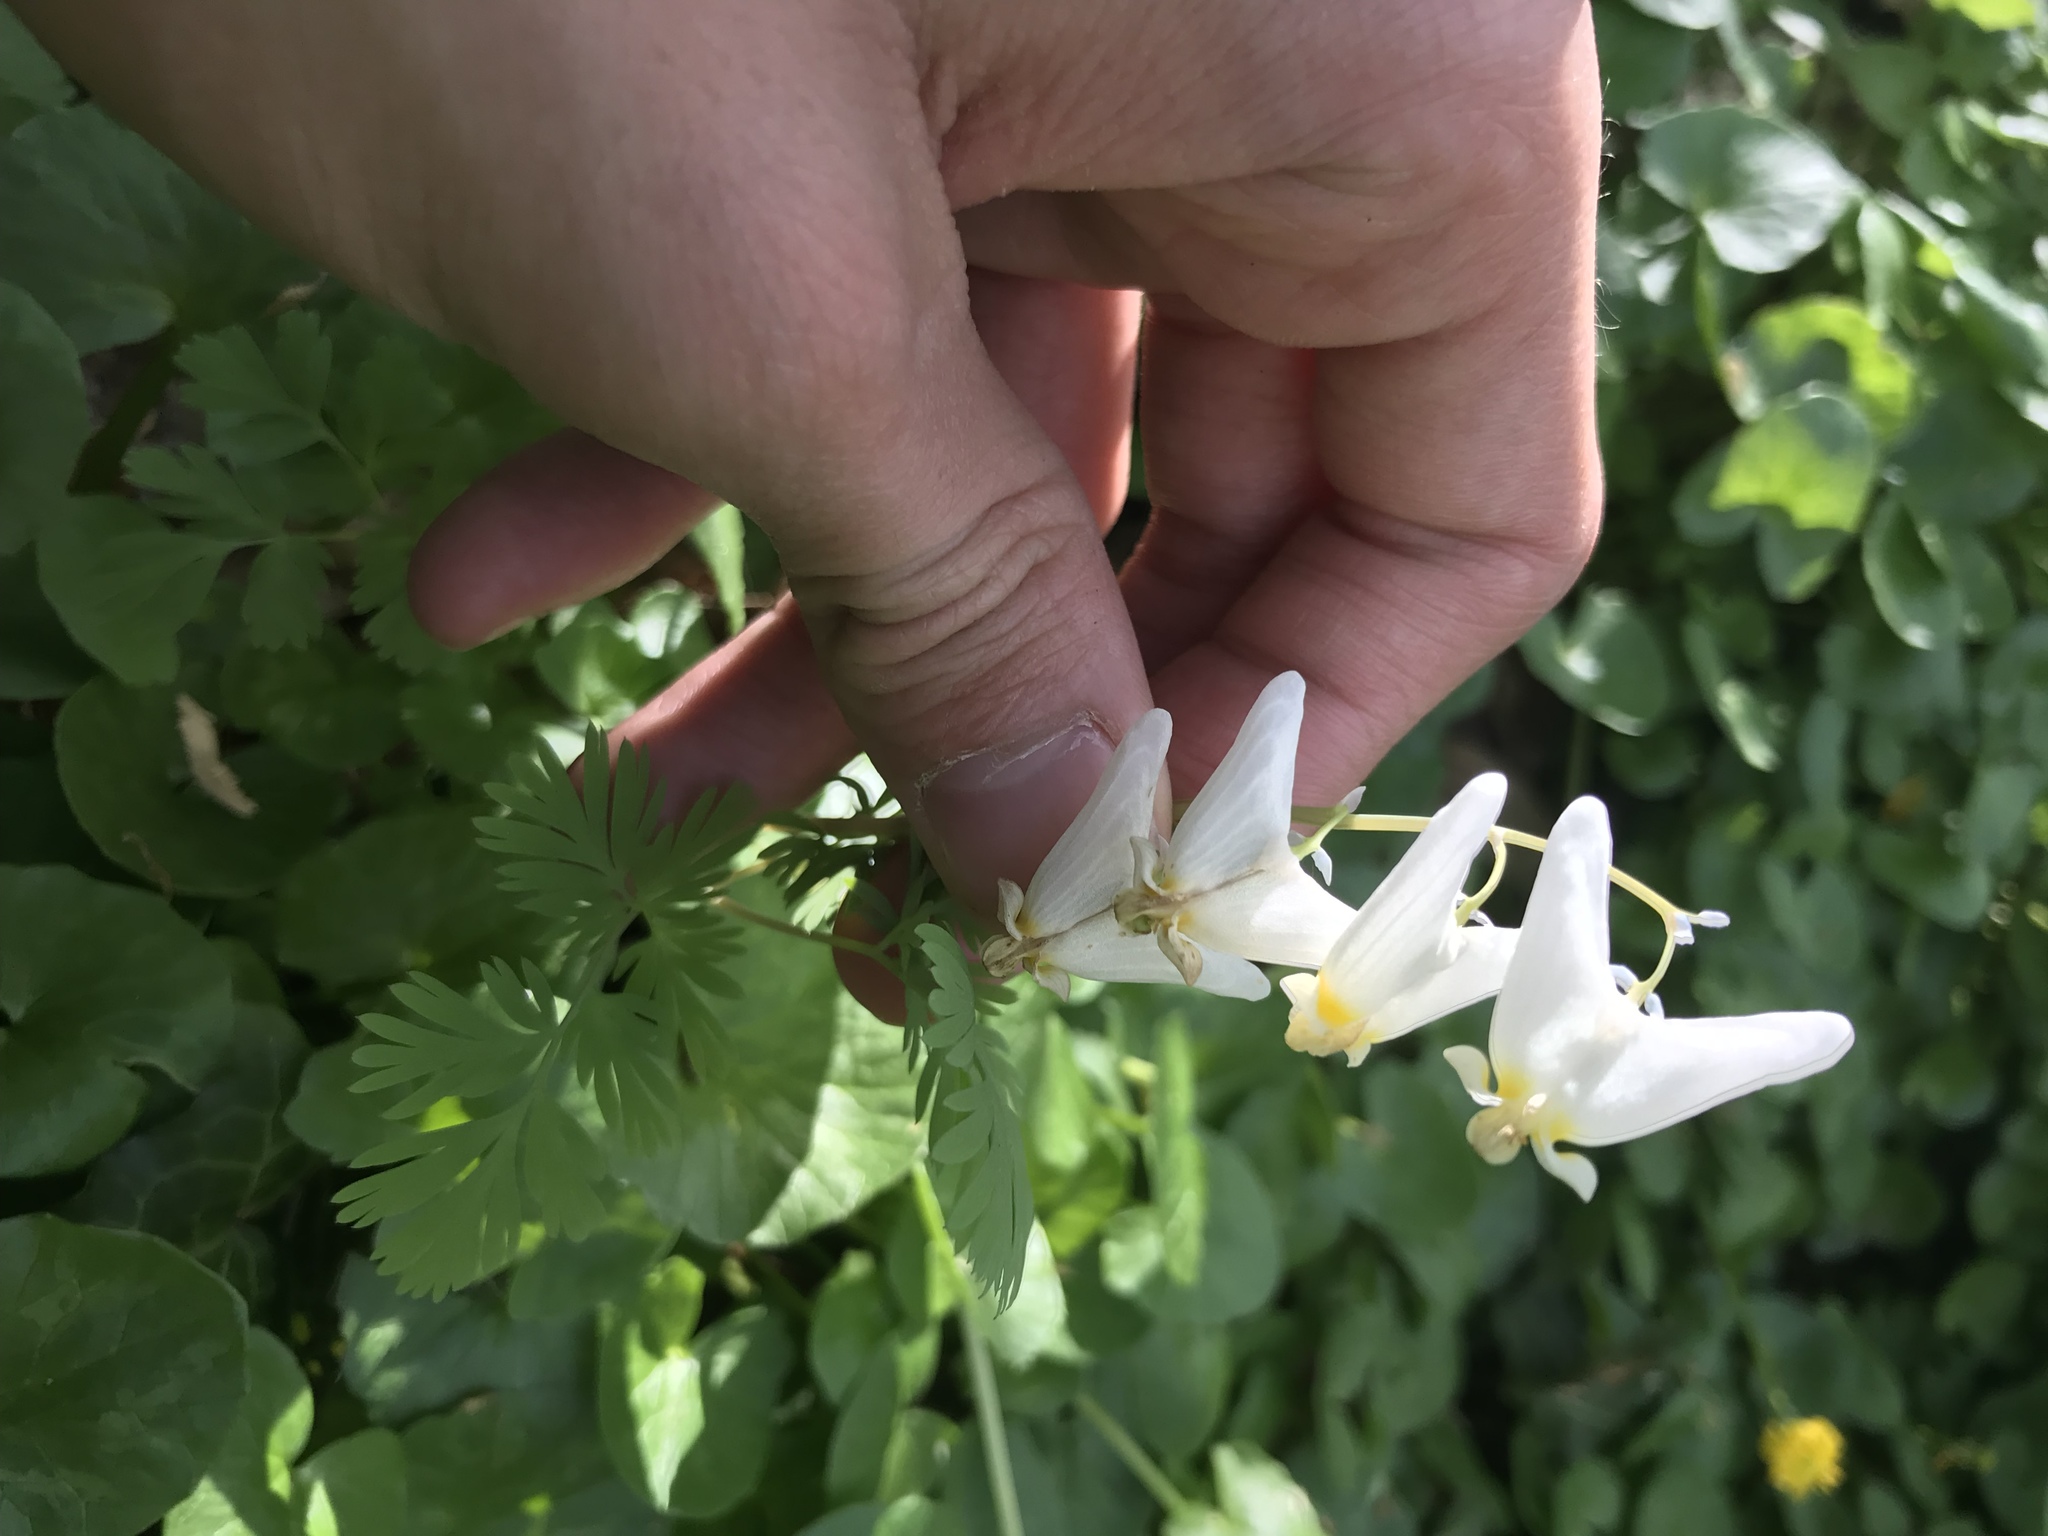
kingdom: Plantae
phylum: Tracheophyta
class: Magnoliopsida
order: Ranunculales
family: Papaveraceae
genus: Dicentra
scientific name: Dicentra cucullaria
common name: Dutchman's breeches
